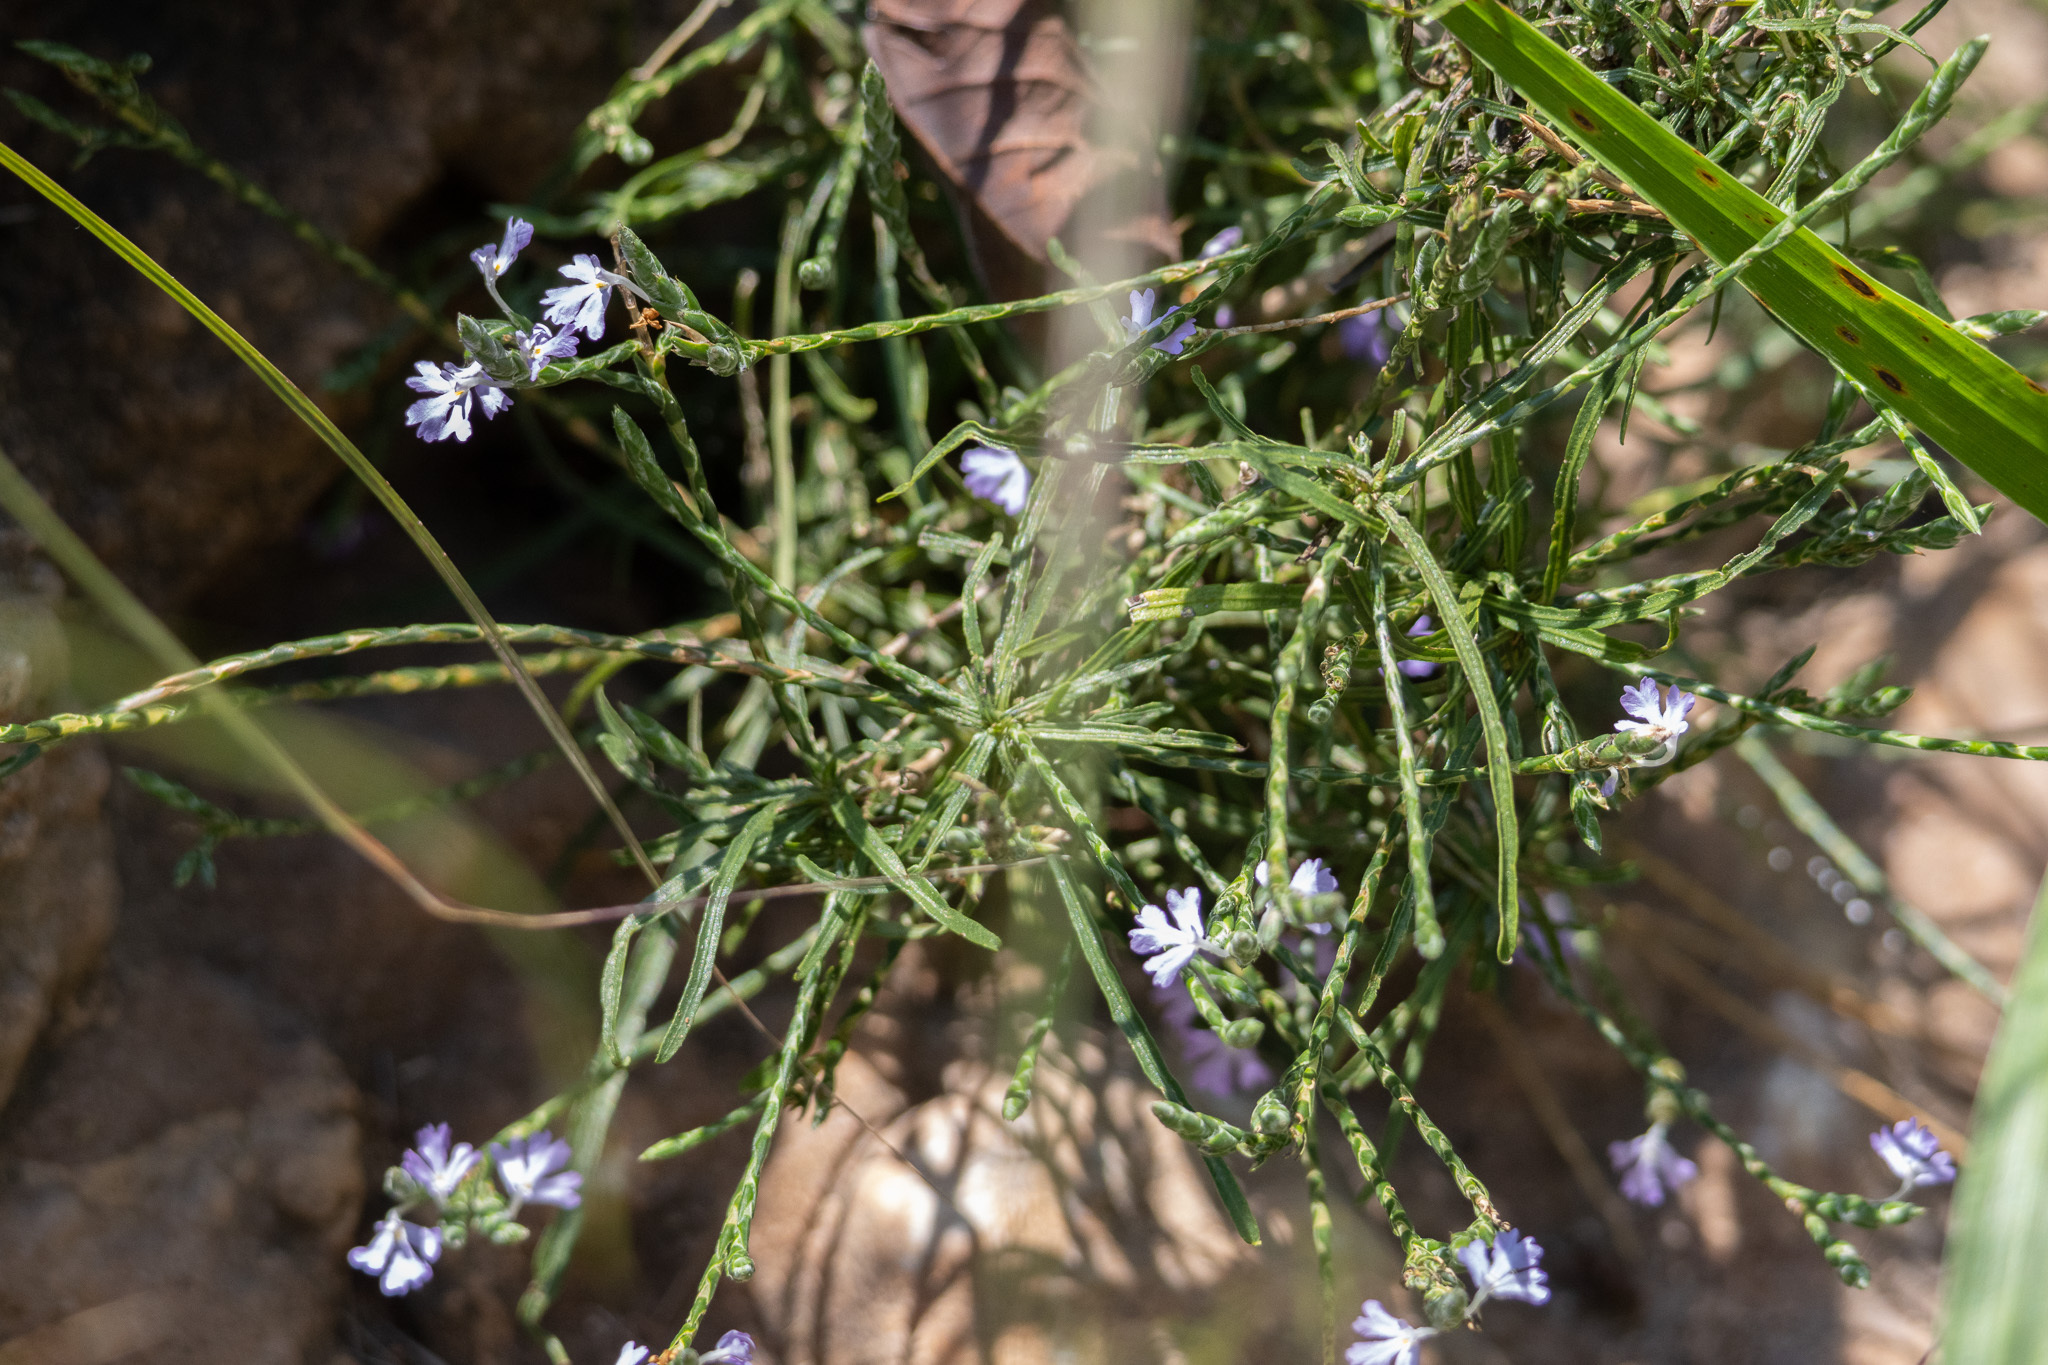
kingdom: Plantae
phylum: Tracheophyta
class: Magnoliopsida
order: Lamiales
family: Acanthaceae
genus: Elytraria
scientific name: Elytraria imbricata
